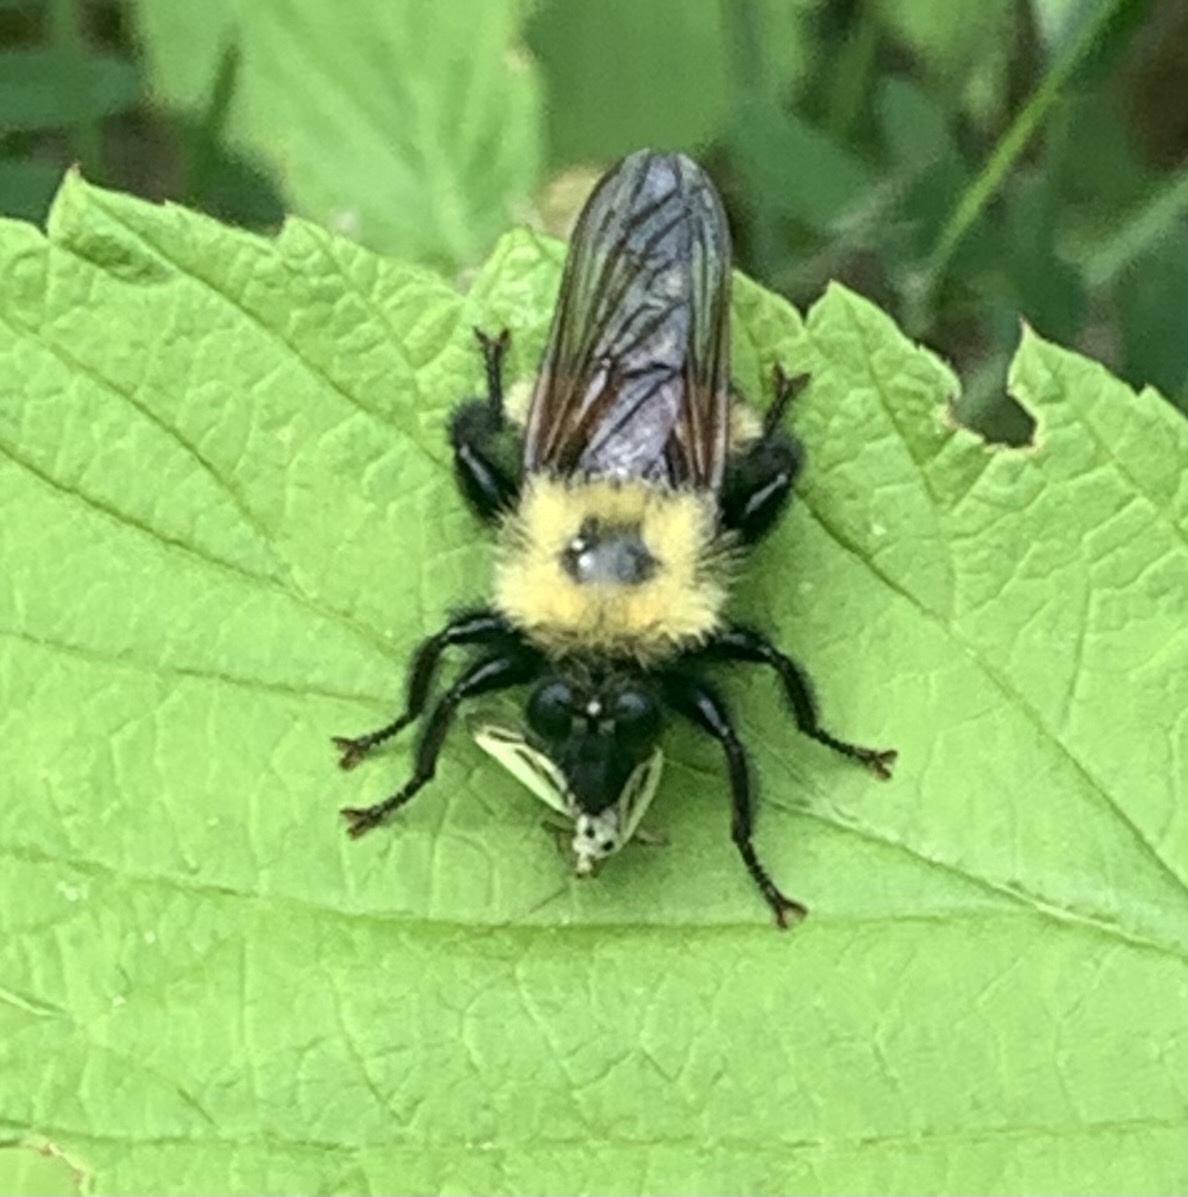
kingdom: Animalia
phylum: Arthropoda
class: Insecta
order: Diptera
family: Asilidae
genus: Laphria
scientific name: Laphria thoracica
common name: Bumble bee mimic robber fly
